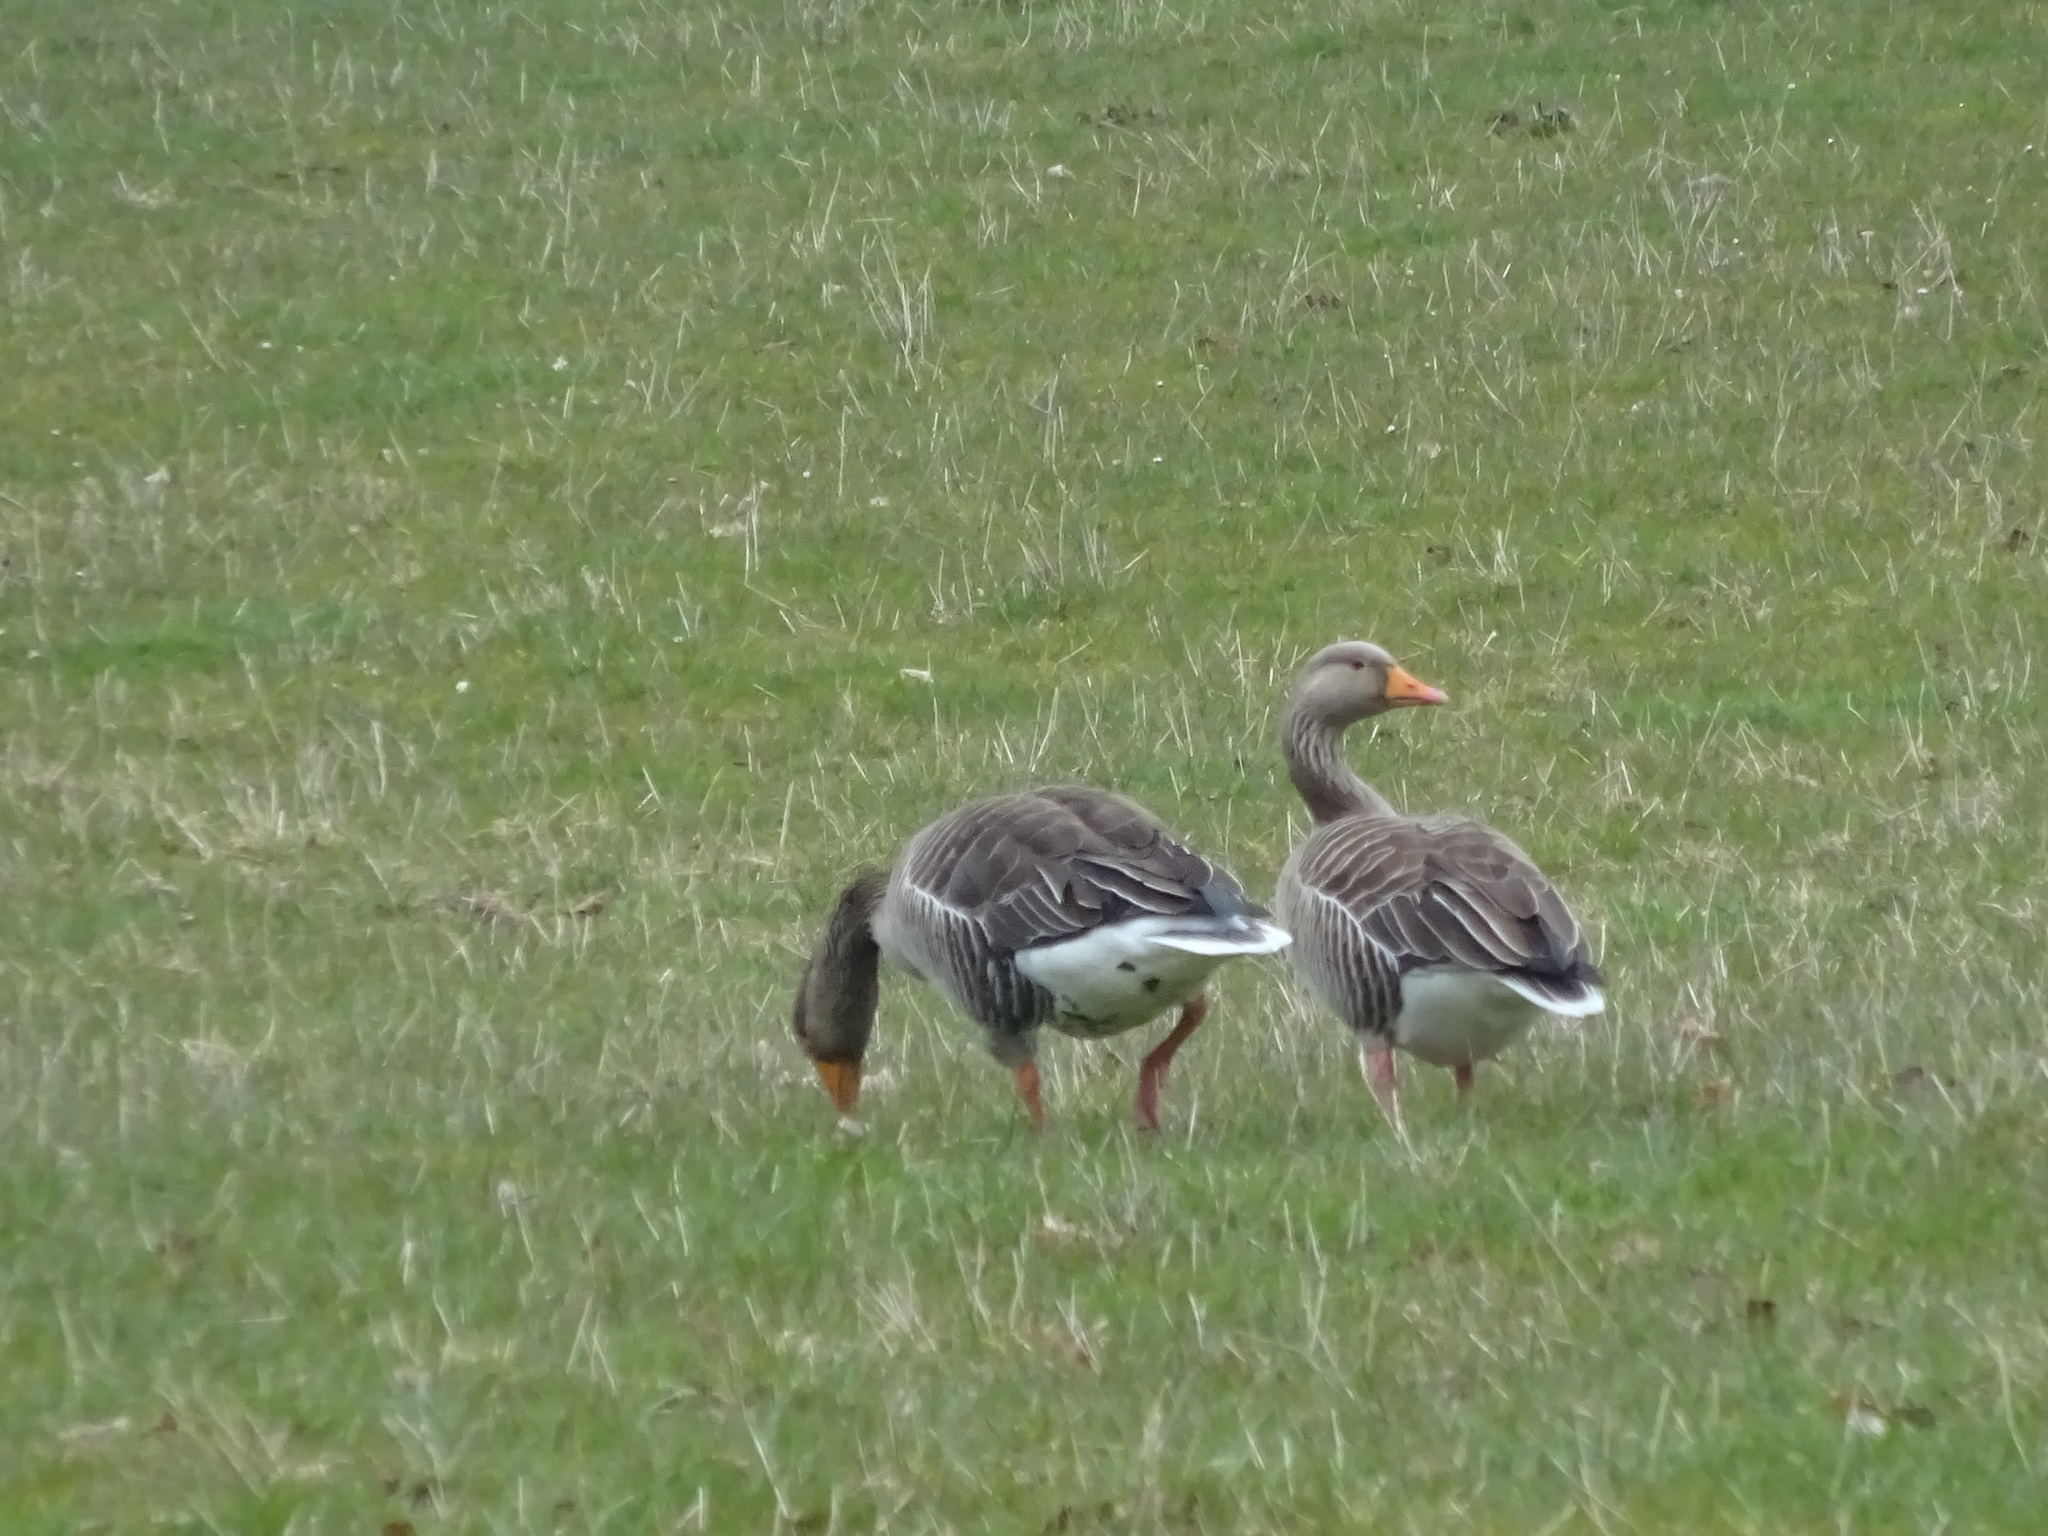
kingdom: Animalia
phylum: Chordata
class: Aves
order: Anseriformes
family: Anatidae
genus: Anser
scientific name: Anser anser
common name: Greylag goose
